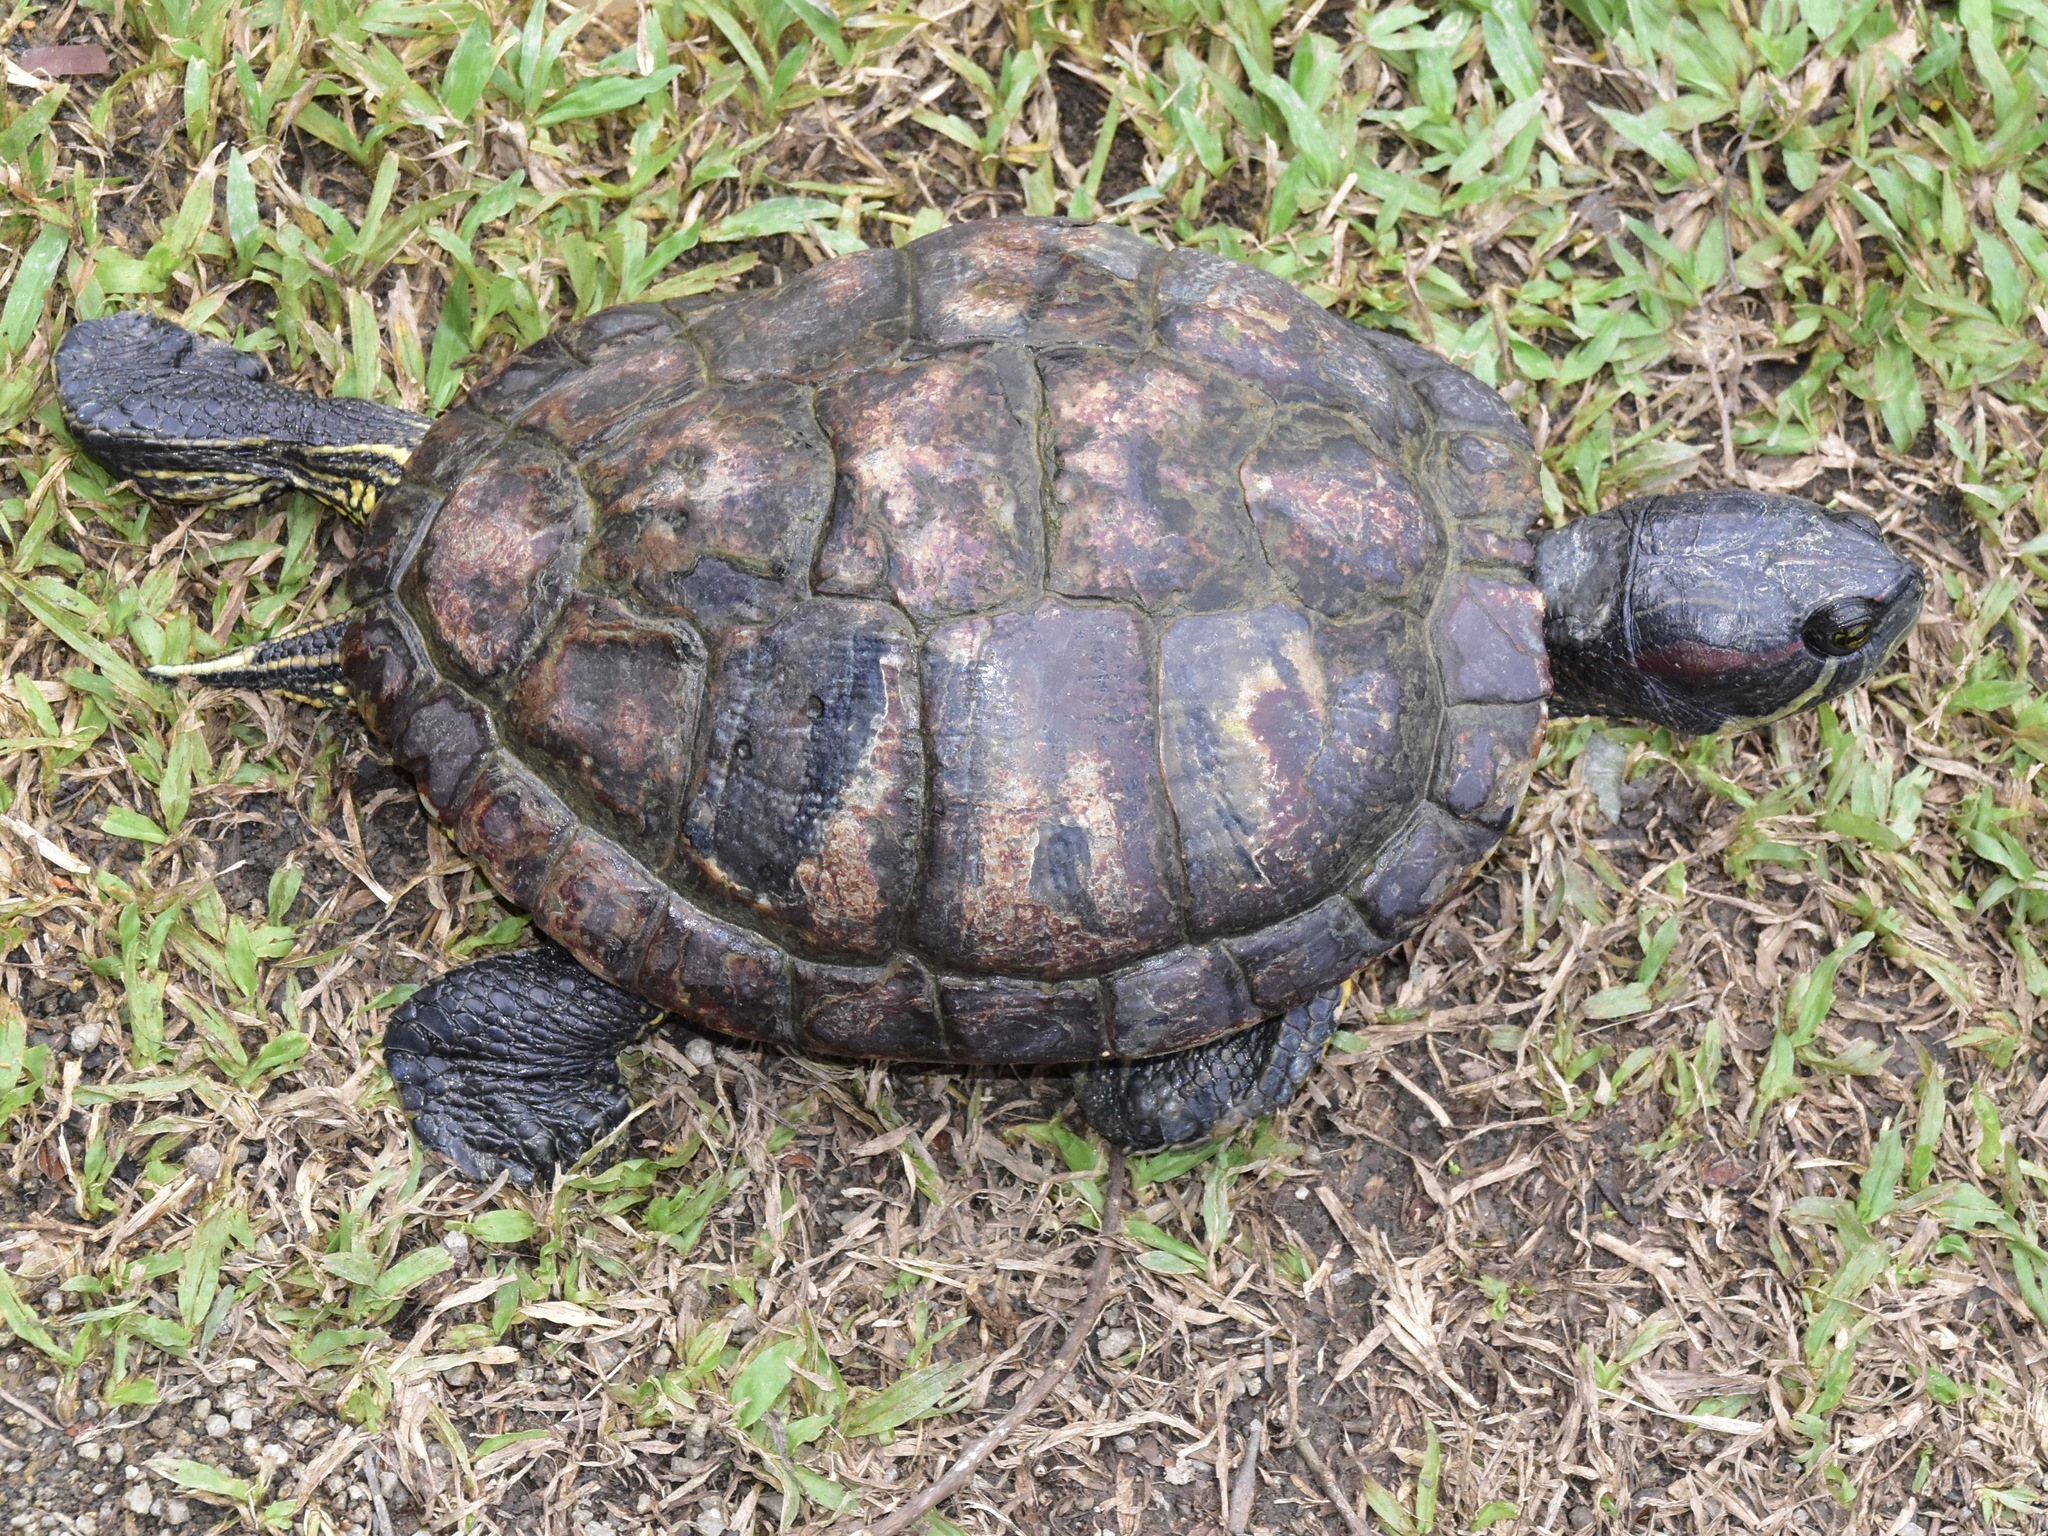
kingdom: Animalia
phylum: Chordata
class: Testudines
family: Emydidae
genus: Trachemys
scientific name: Trachemys scripta
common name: Slider
